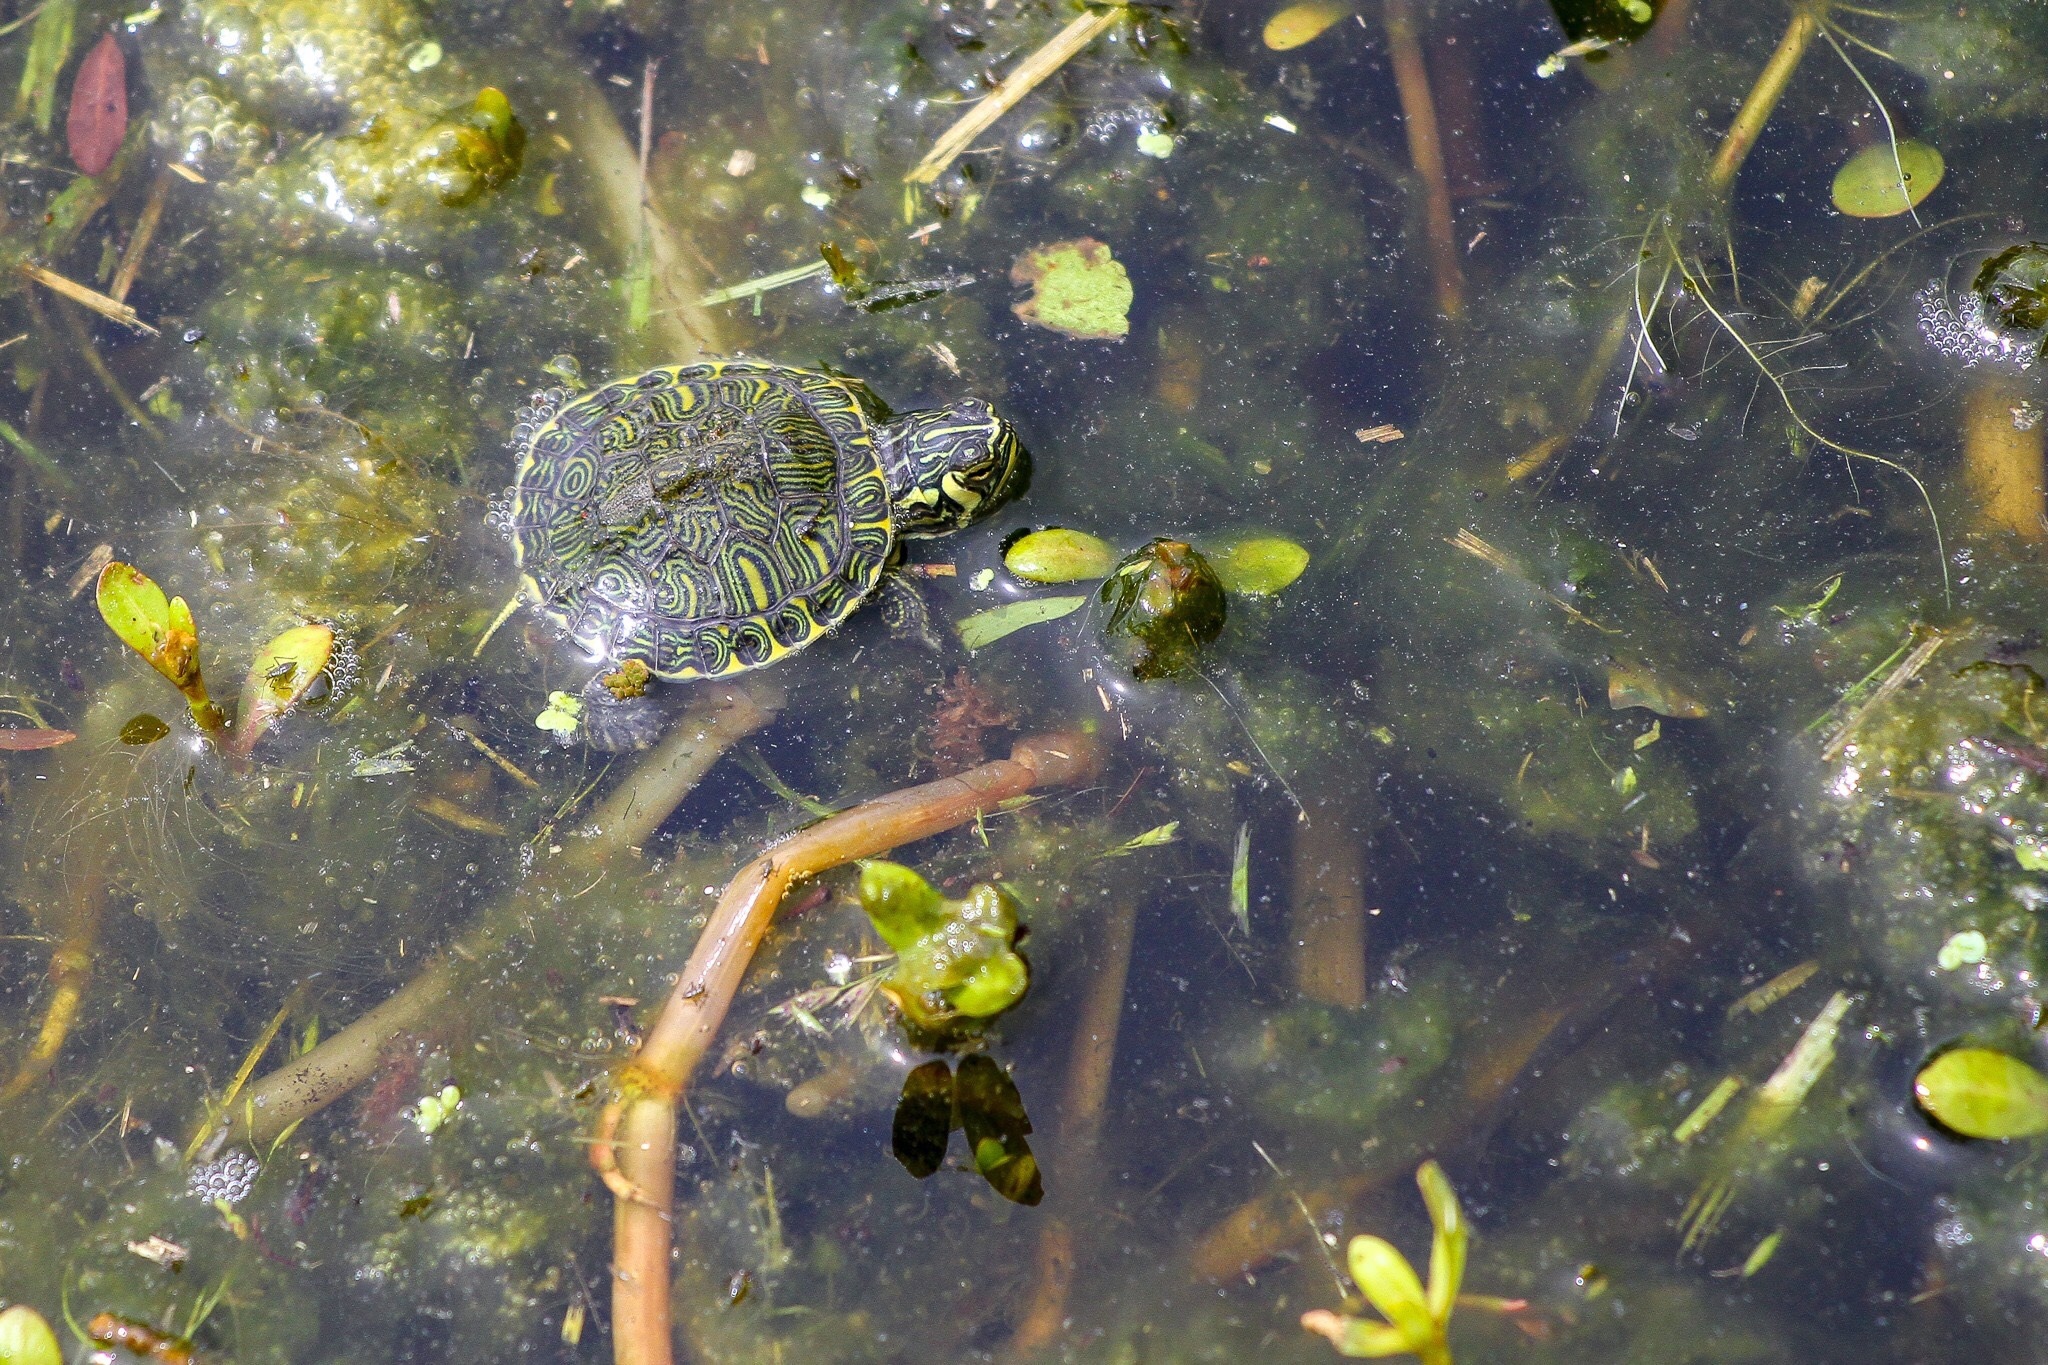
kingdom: Animalia
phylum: Chordata
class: Testudines
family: Emydidae
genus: Trachemys
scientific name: Trachemys scripta
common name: Slider
